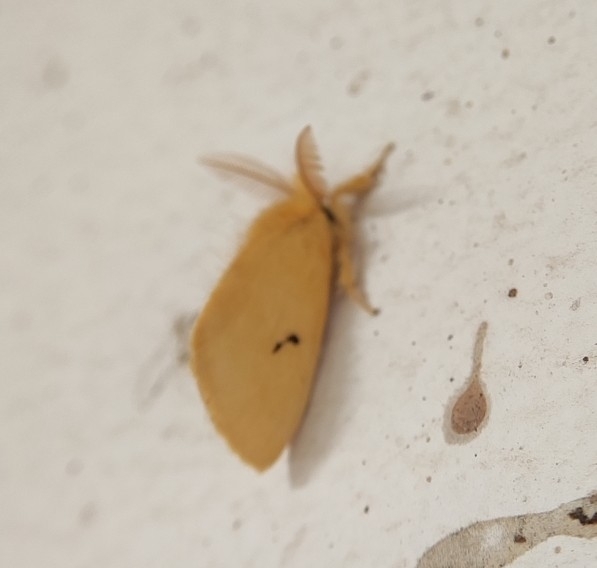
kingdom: Animalia
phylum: Arthropoda
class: Insecta
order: Lepidoptera
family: Erebidae
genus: Euproctis
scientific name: Euproctis lunata
